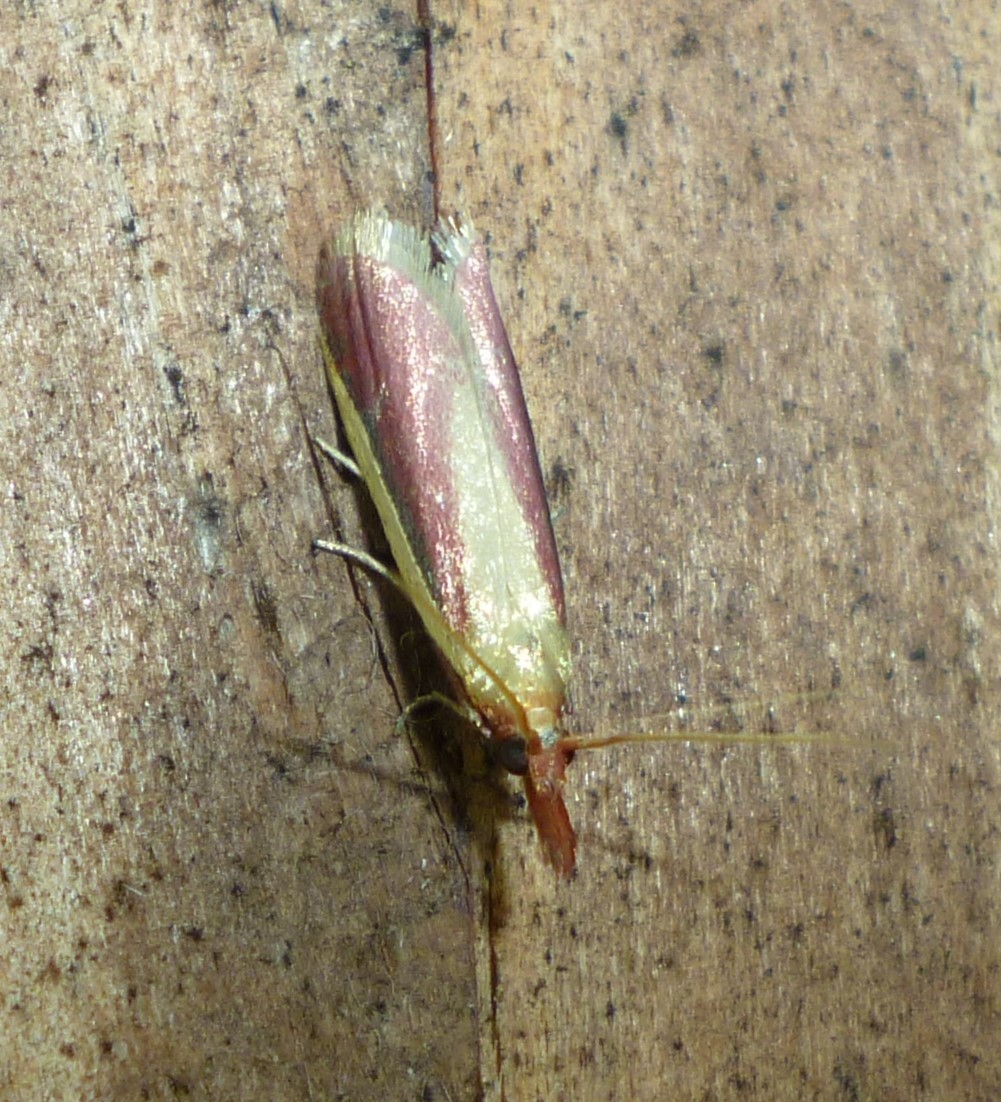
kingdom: Animalia
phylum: Arthropoda
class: Insecta
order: Lepidoptera
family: Pyralidae
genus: Peoria
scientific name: Peoria approximella
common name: Carmine snout
